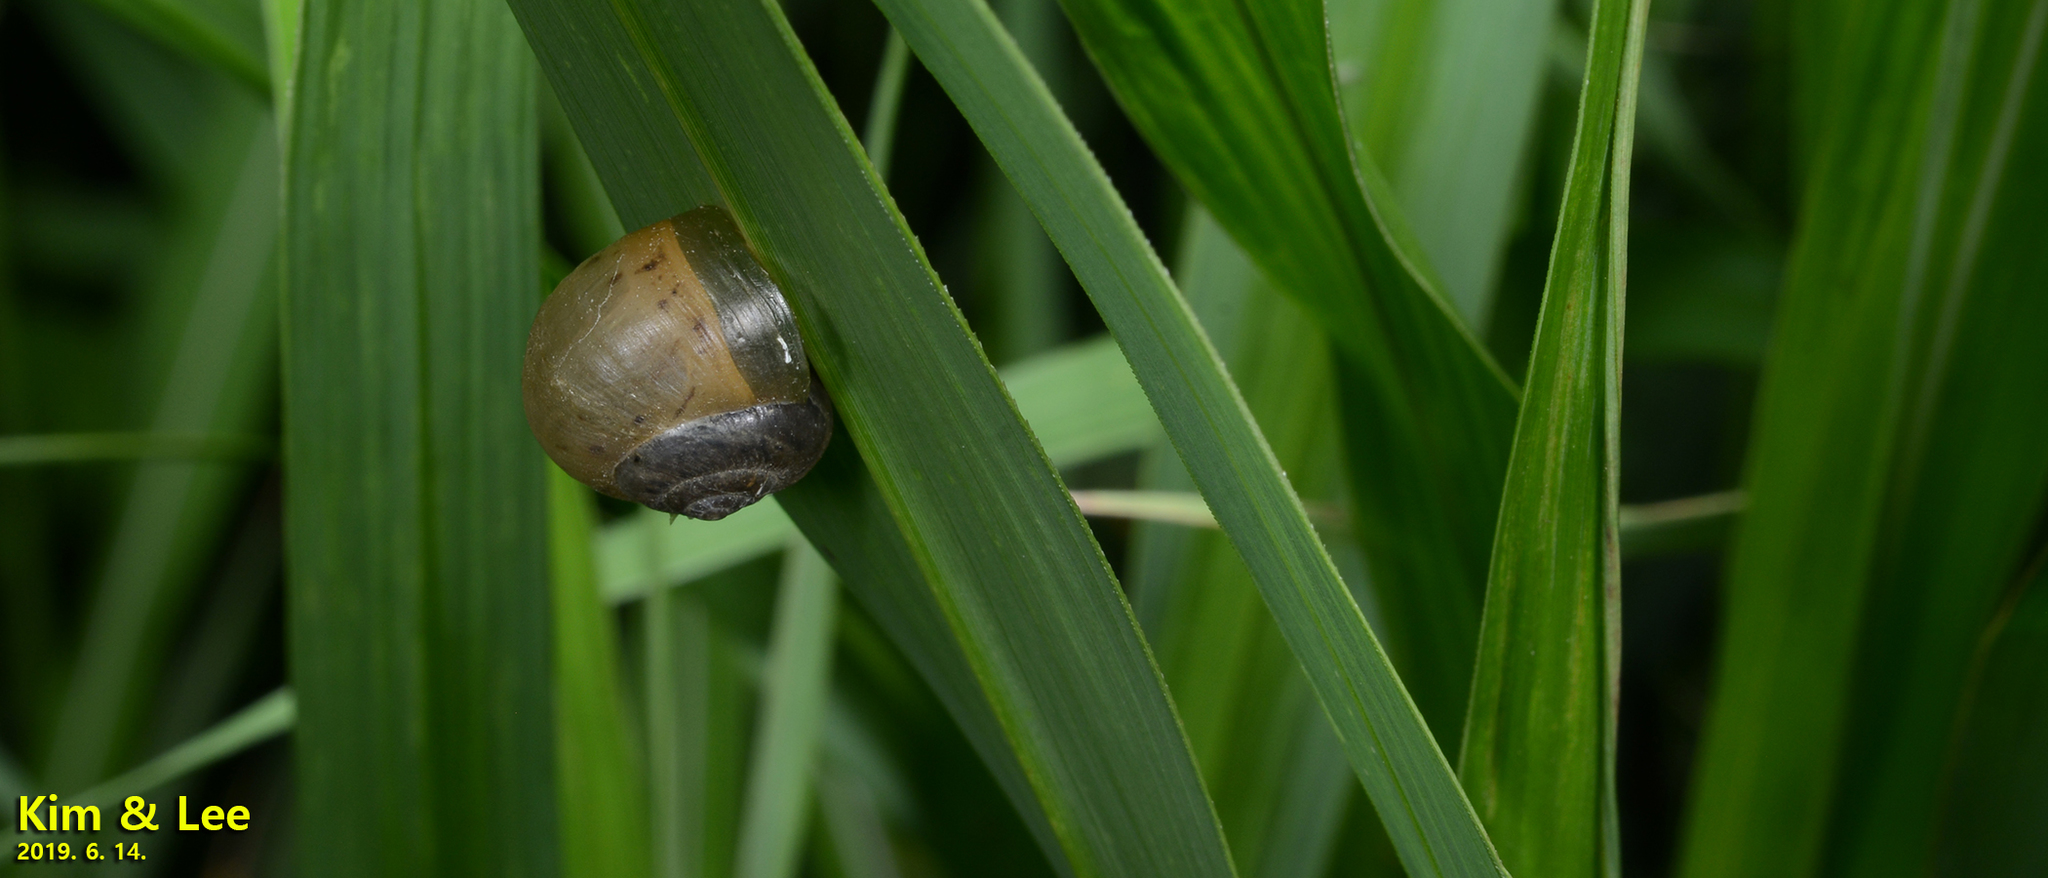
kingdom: Animalia
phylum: Mollusca
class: Gastropoda
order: Stylommatophora
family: Camaenidae
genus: Acusta
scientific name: Acusta redfieldi
